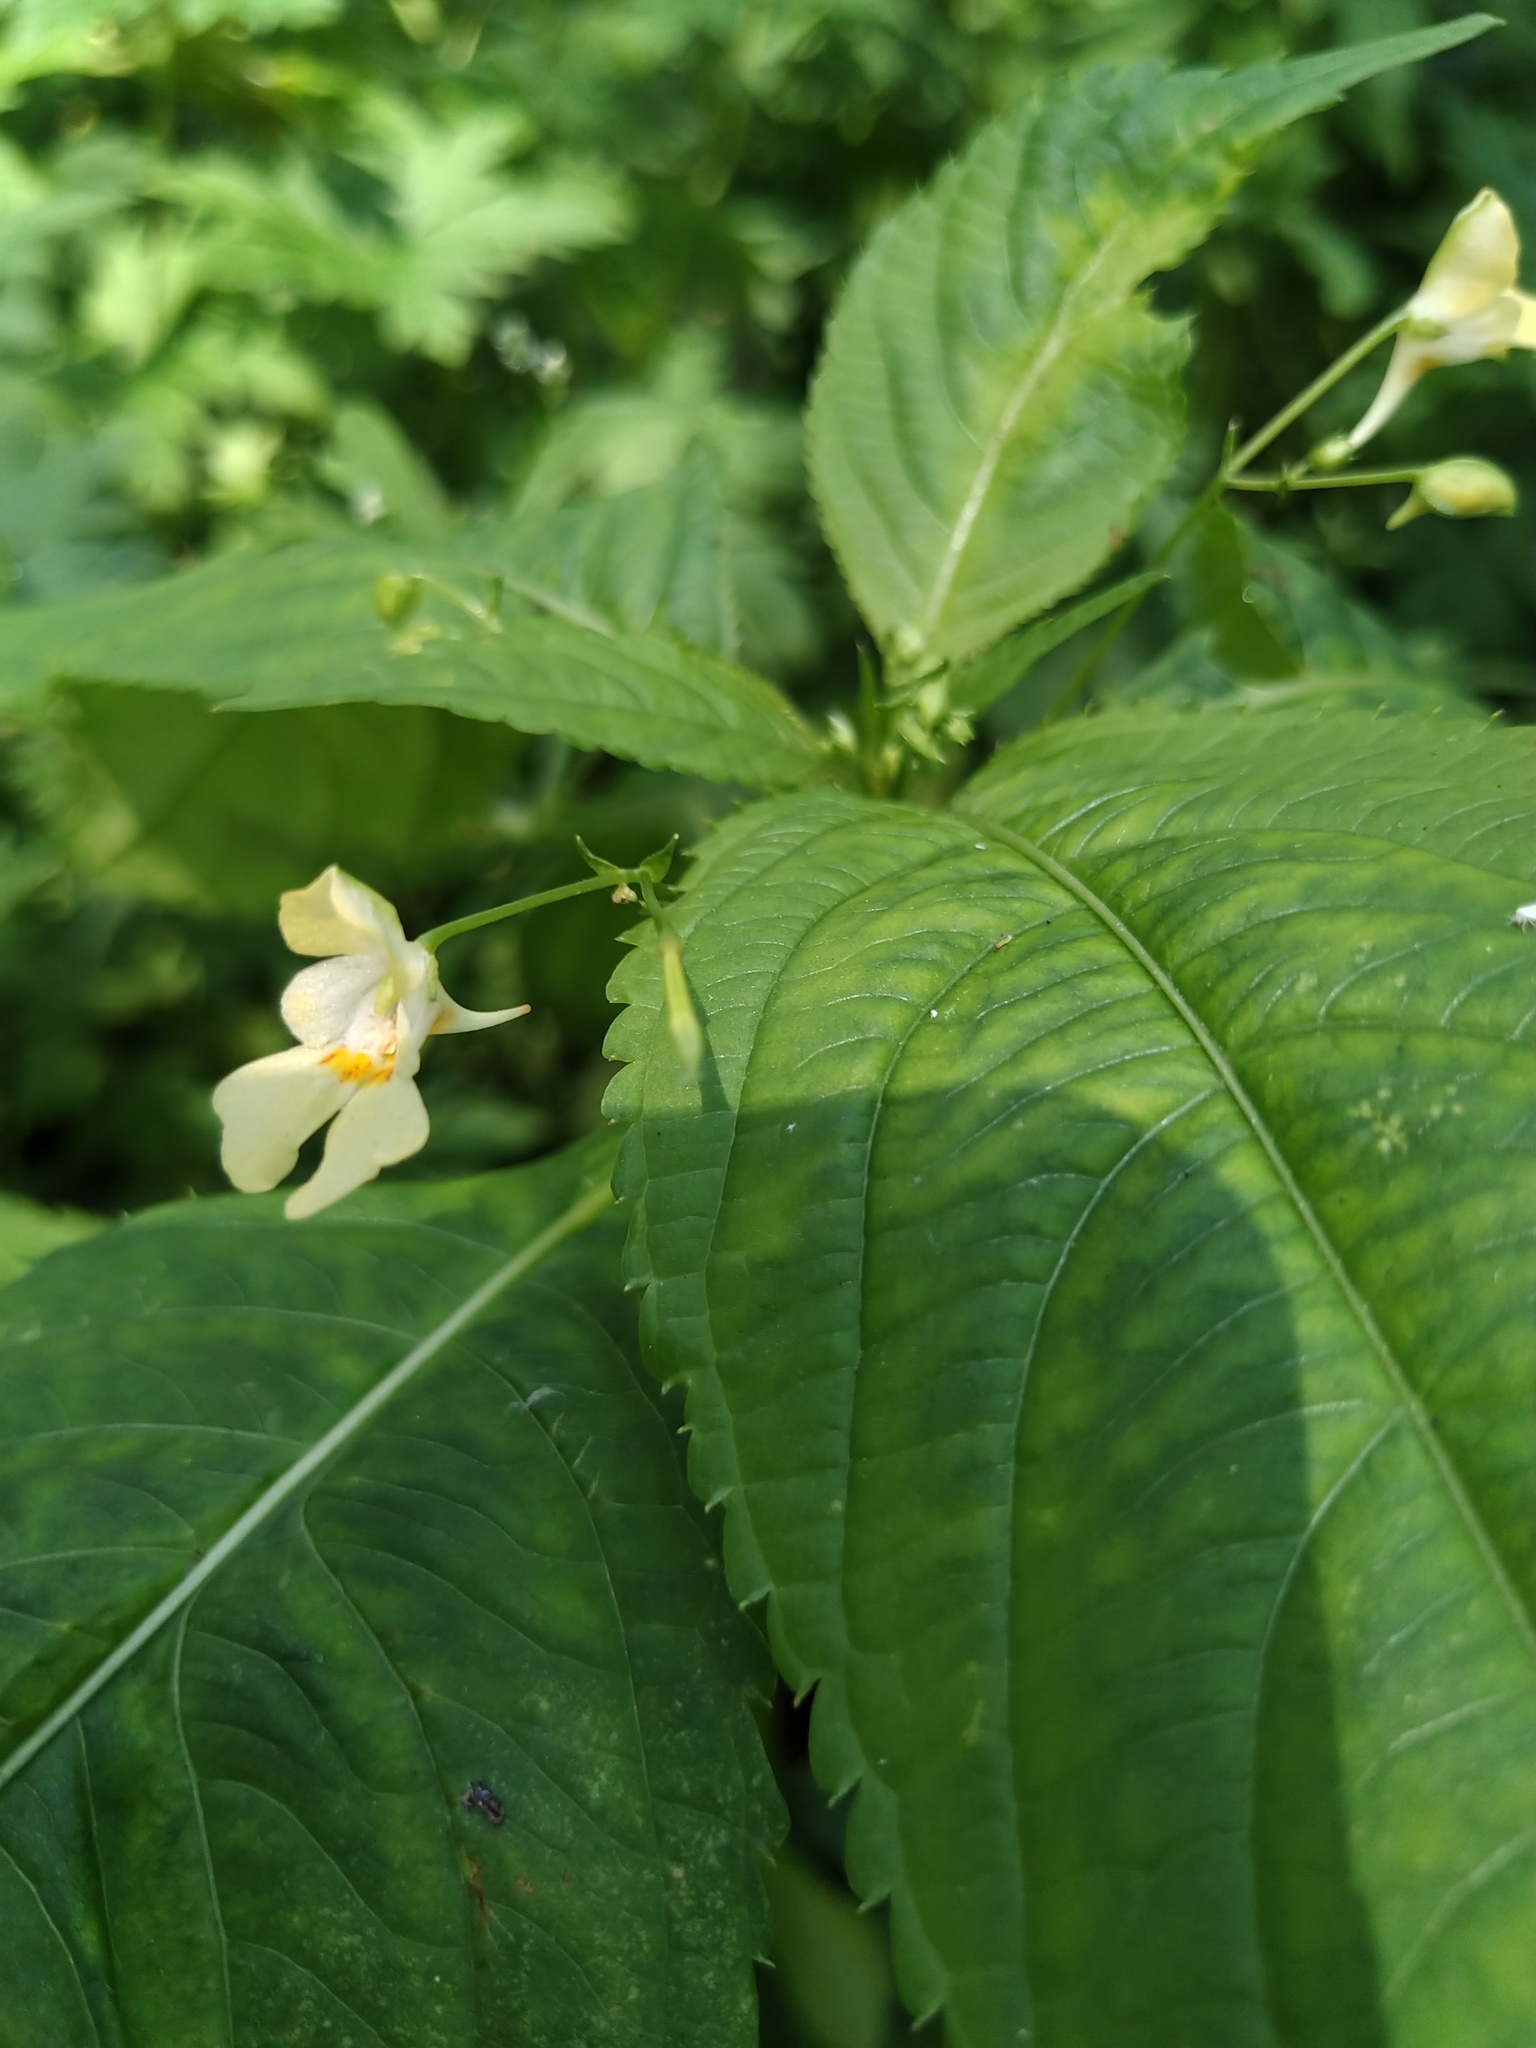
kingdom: Plantae
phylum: Tracheophyta
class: Magnoliopsida
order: Ericales
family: Balsaminaceae
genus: Impatiens
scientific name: Impatiens parviflora
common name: Small balsam
